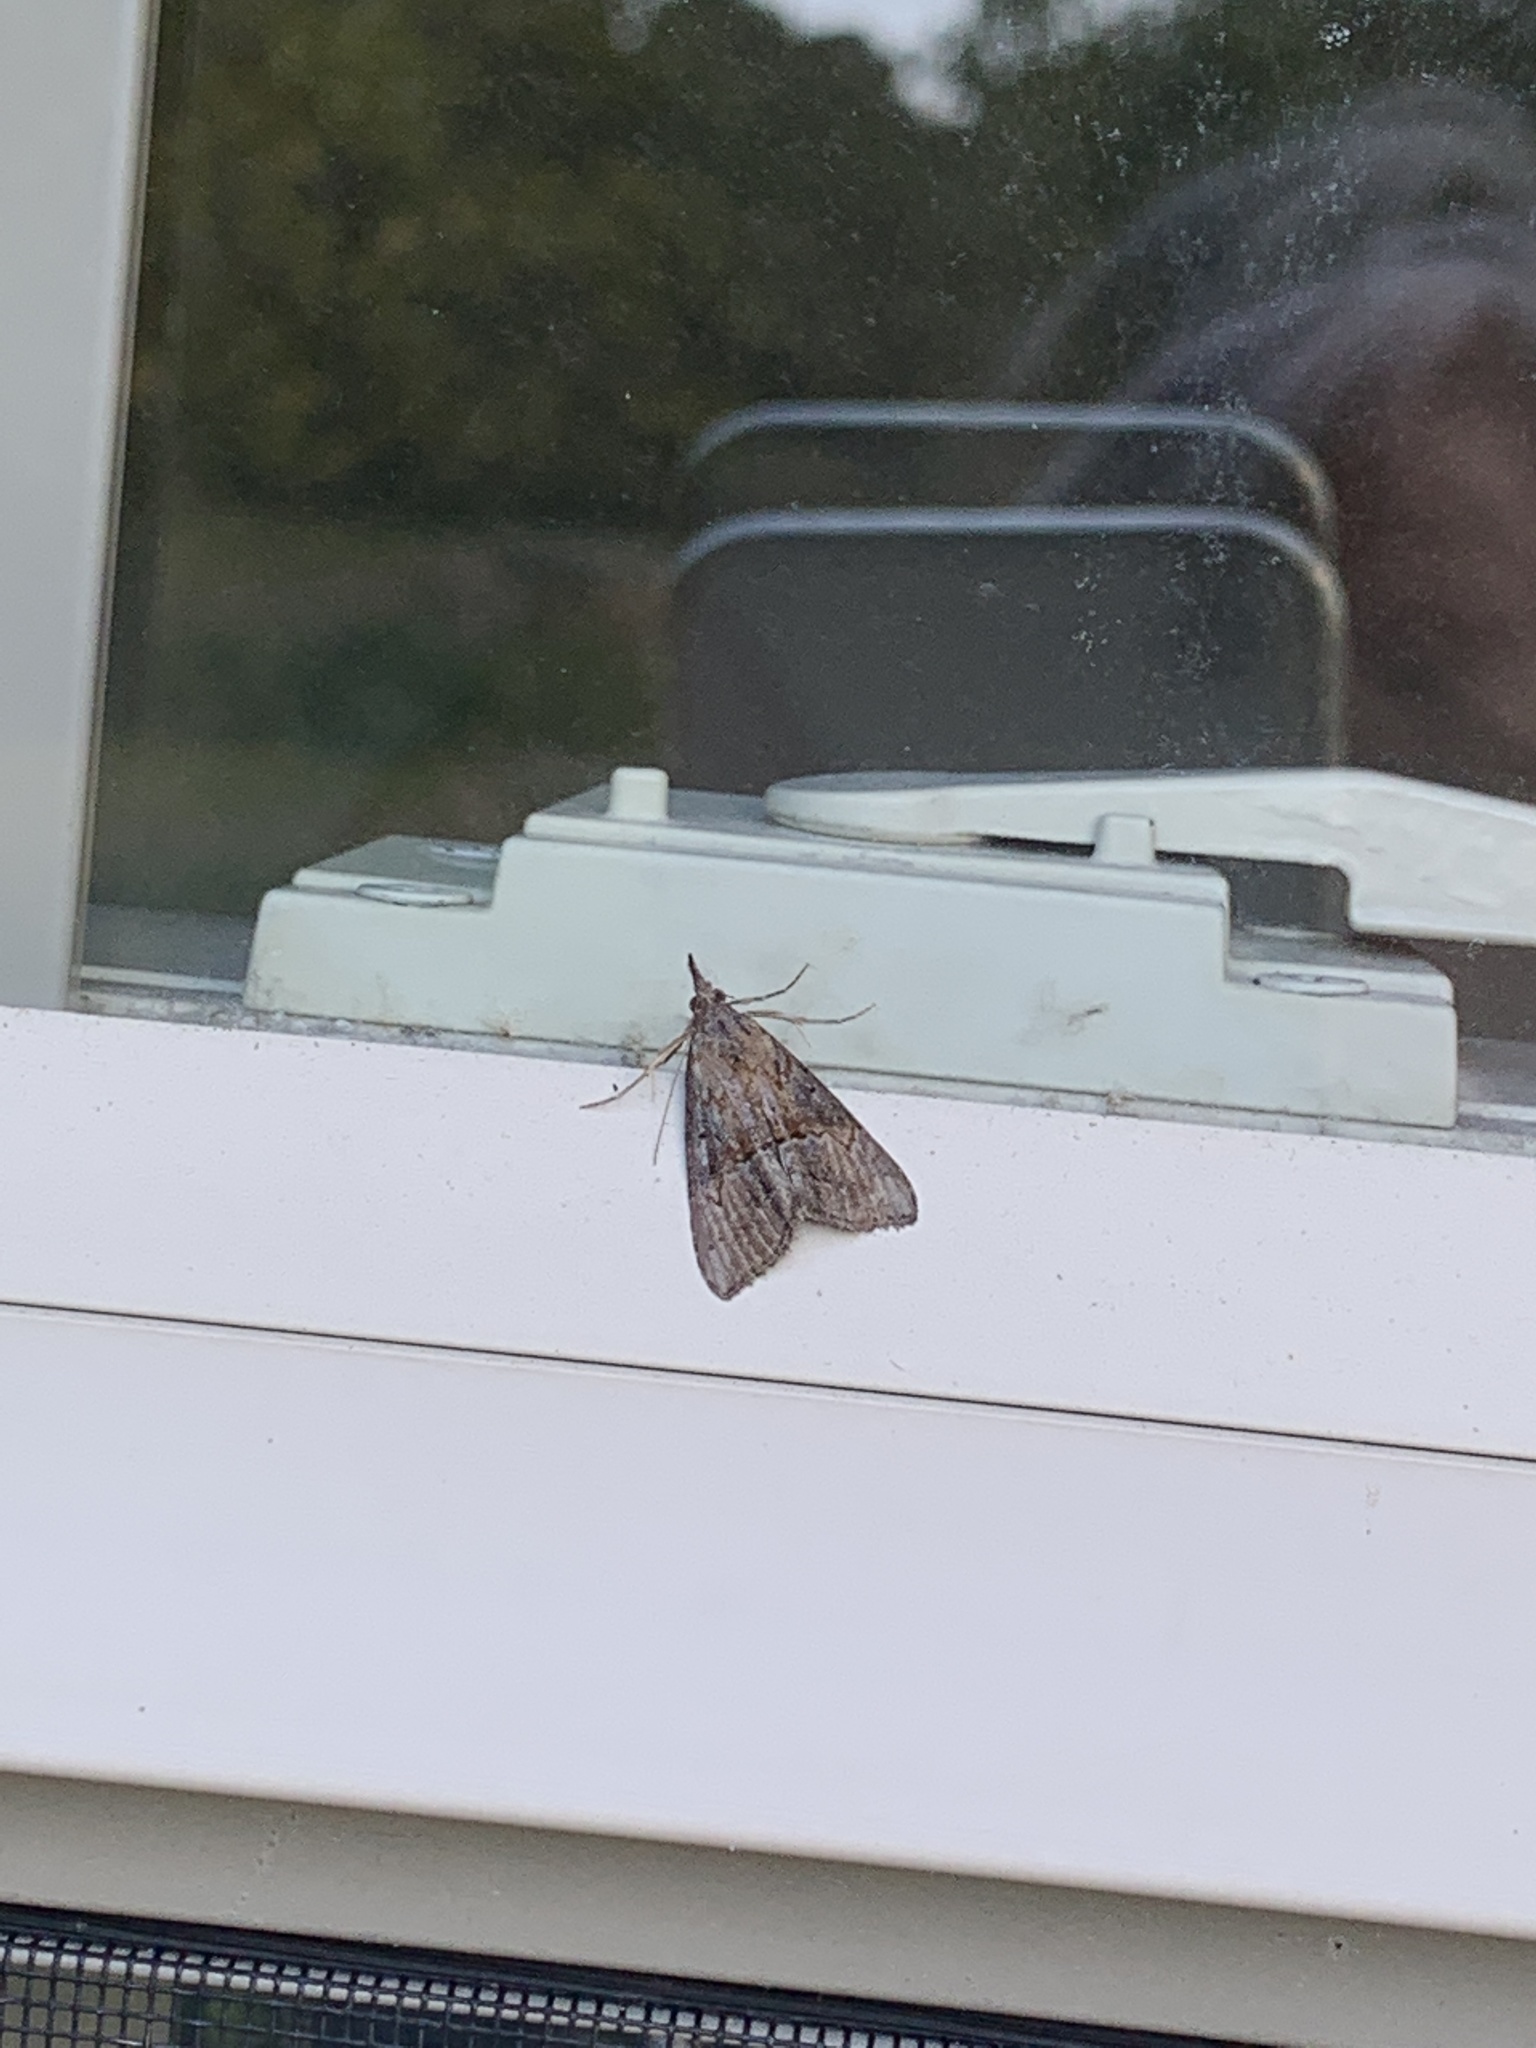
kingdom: Animalia
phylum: Arthropoda
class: Insecta
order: Lepidoptera
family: Erebidae
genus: Hypena
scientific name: Hypena scabra
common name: Green cloverworm
